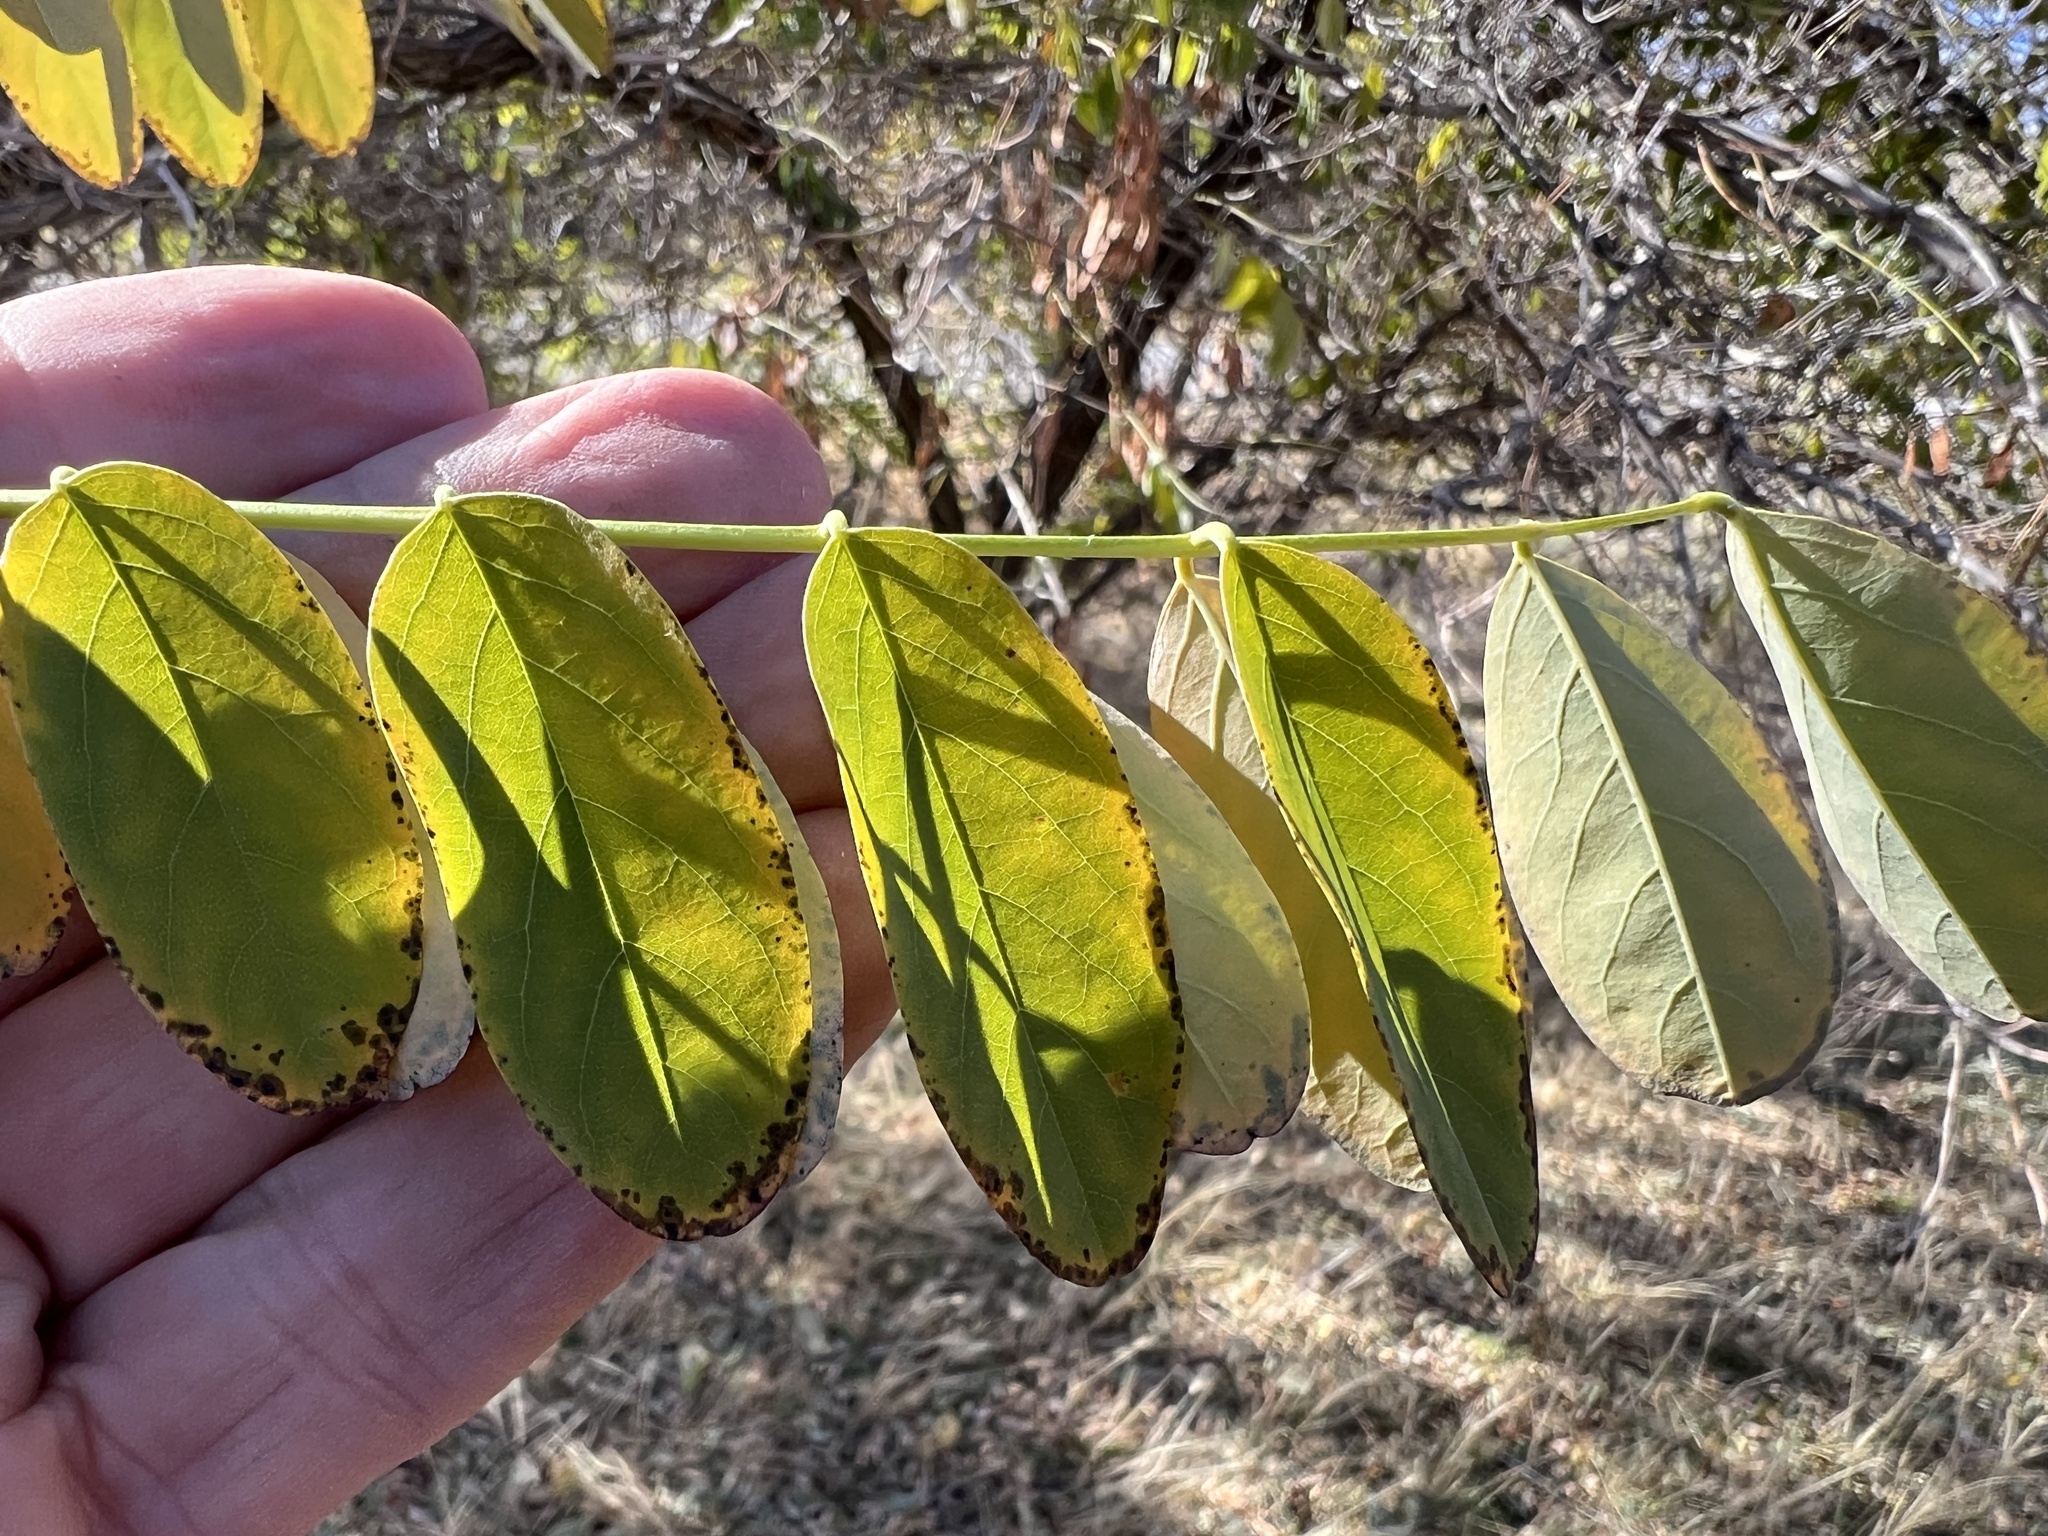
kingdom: Plantae
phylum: Tracheophyta
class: Magnoliopsida
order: Fabales
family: Fabaceae
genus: Robinia
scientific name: Robinia pseudoacacia
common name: Black locust
